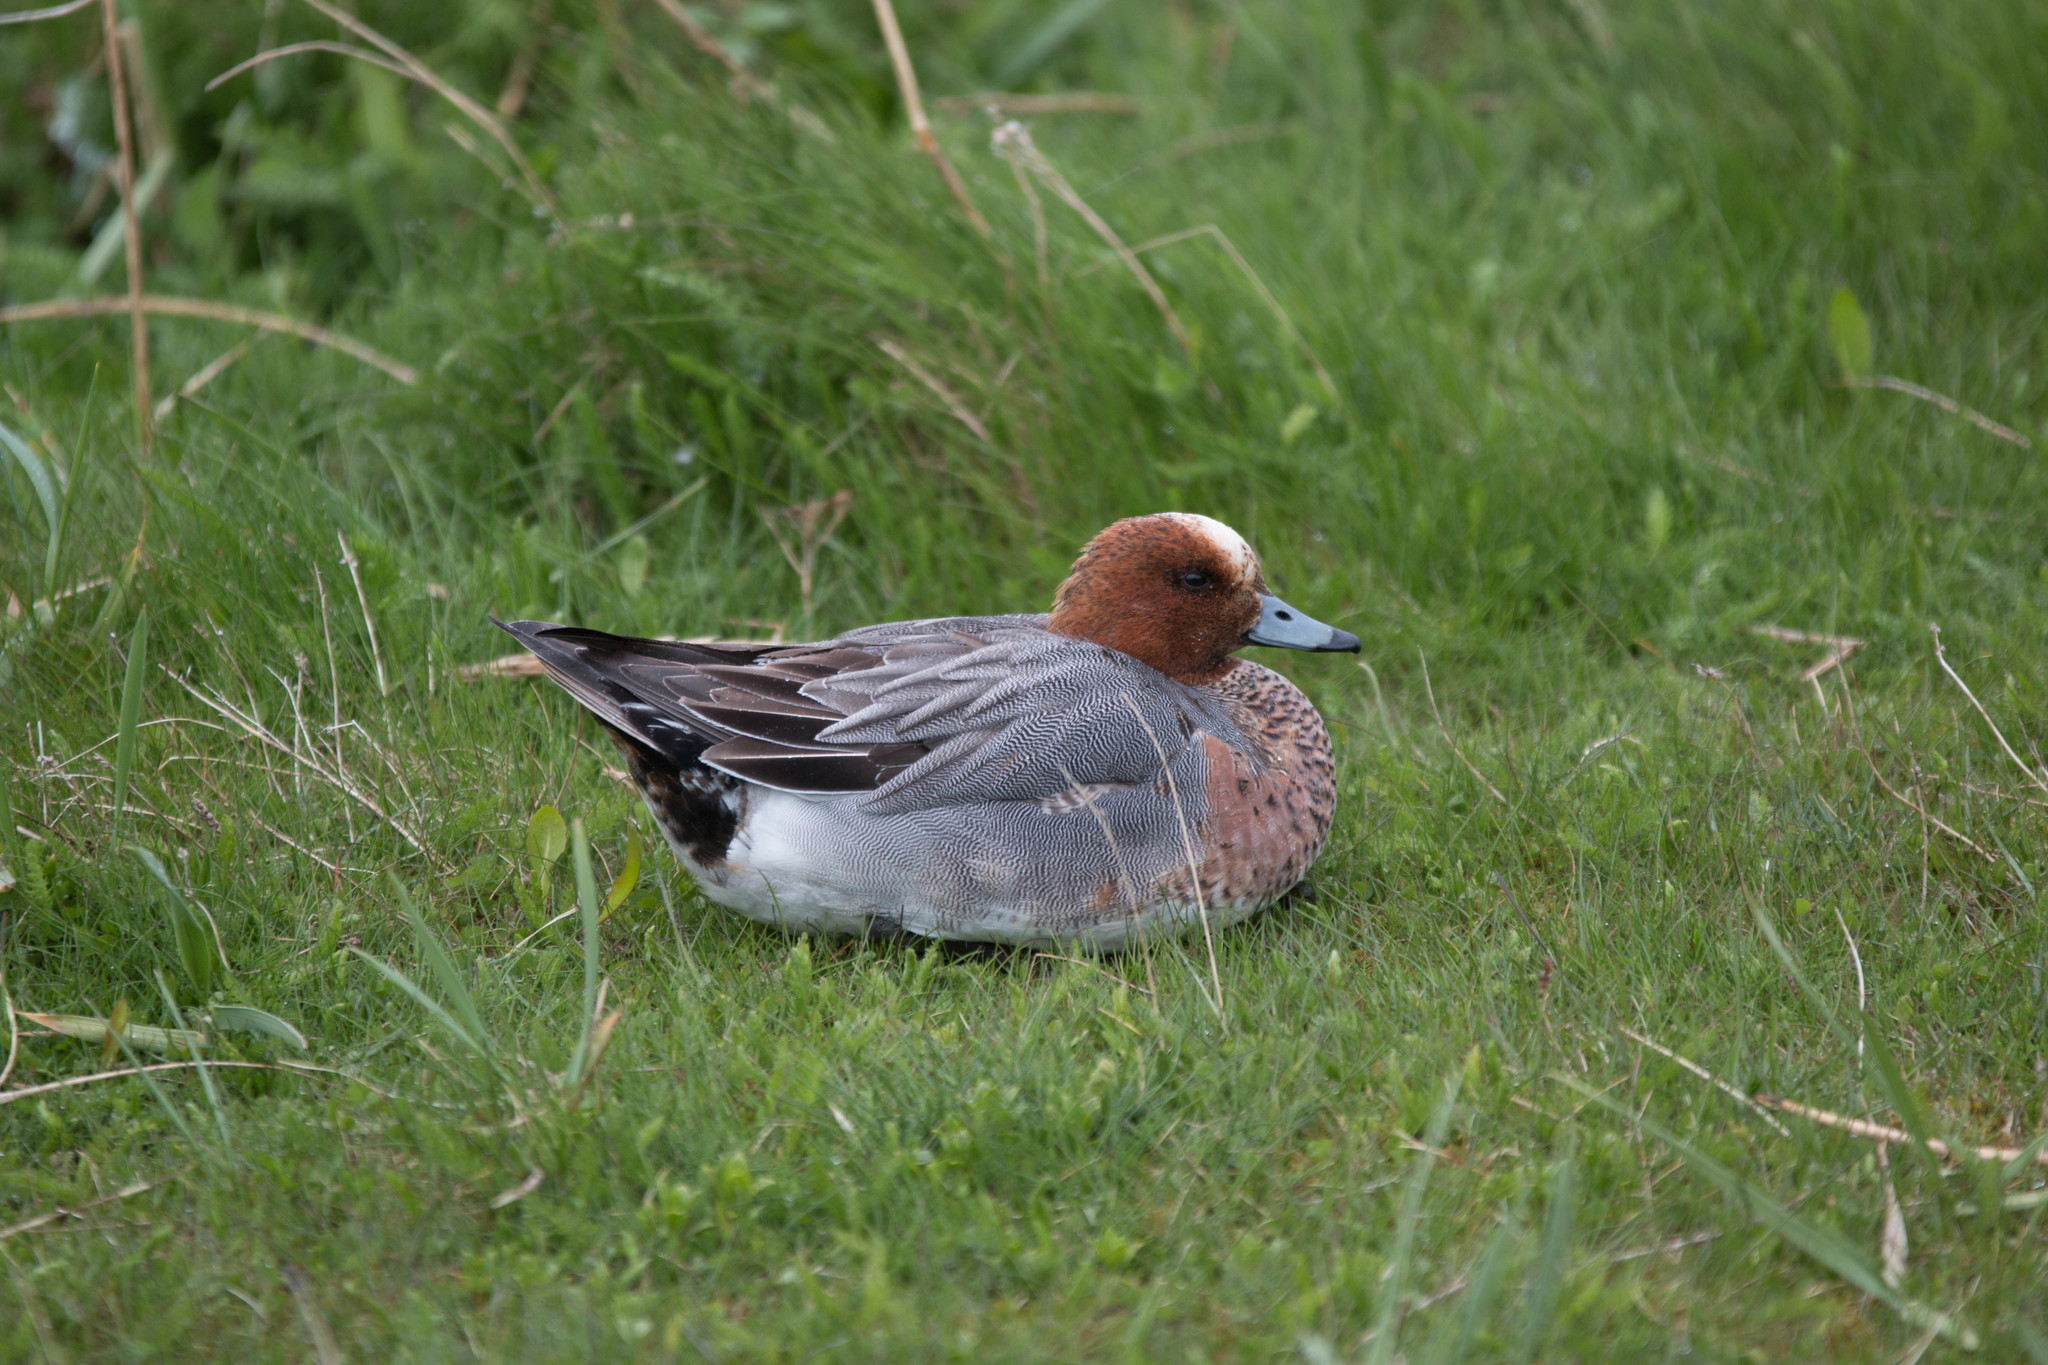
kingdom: Animalia
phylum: Chordata
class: Aves
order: Anseriformes
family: Anatidae
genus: Mareca
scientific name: Mareca penelope
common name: Eurasian wigeon
